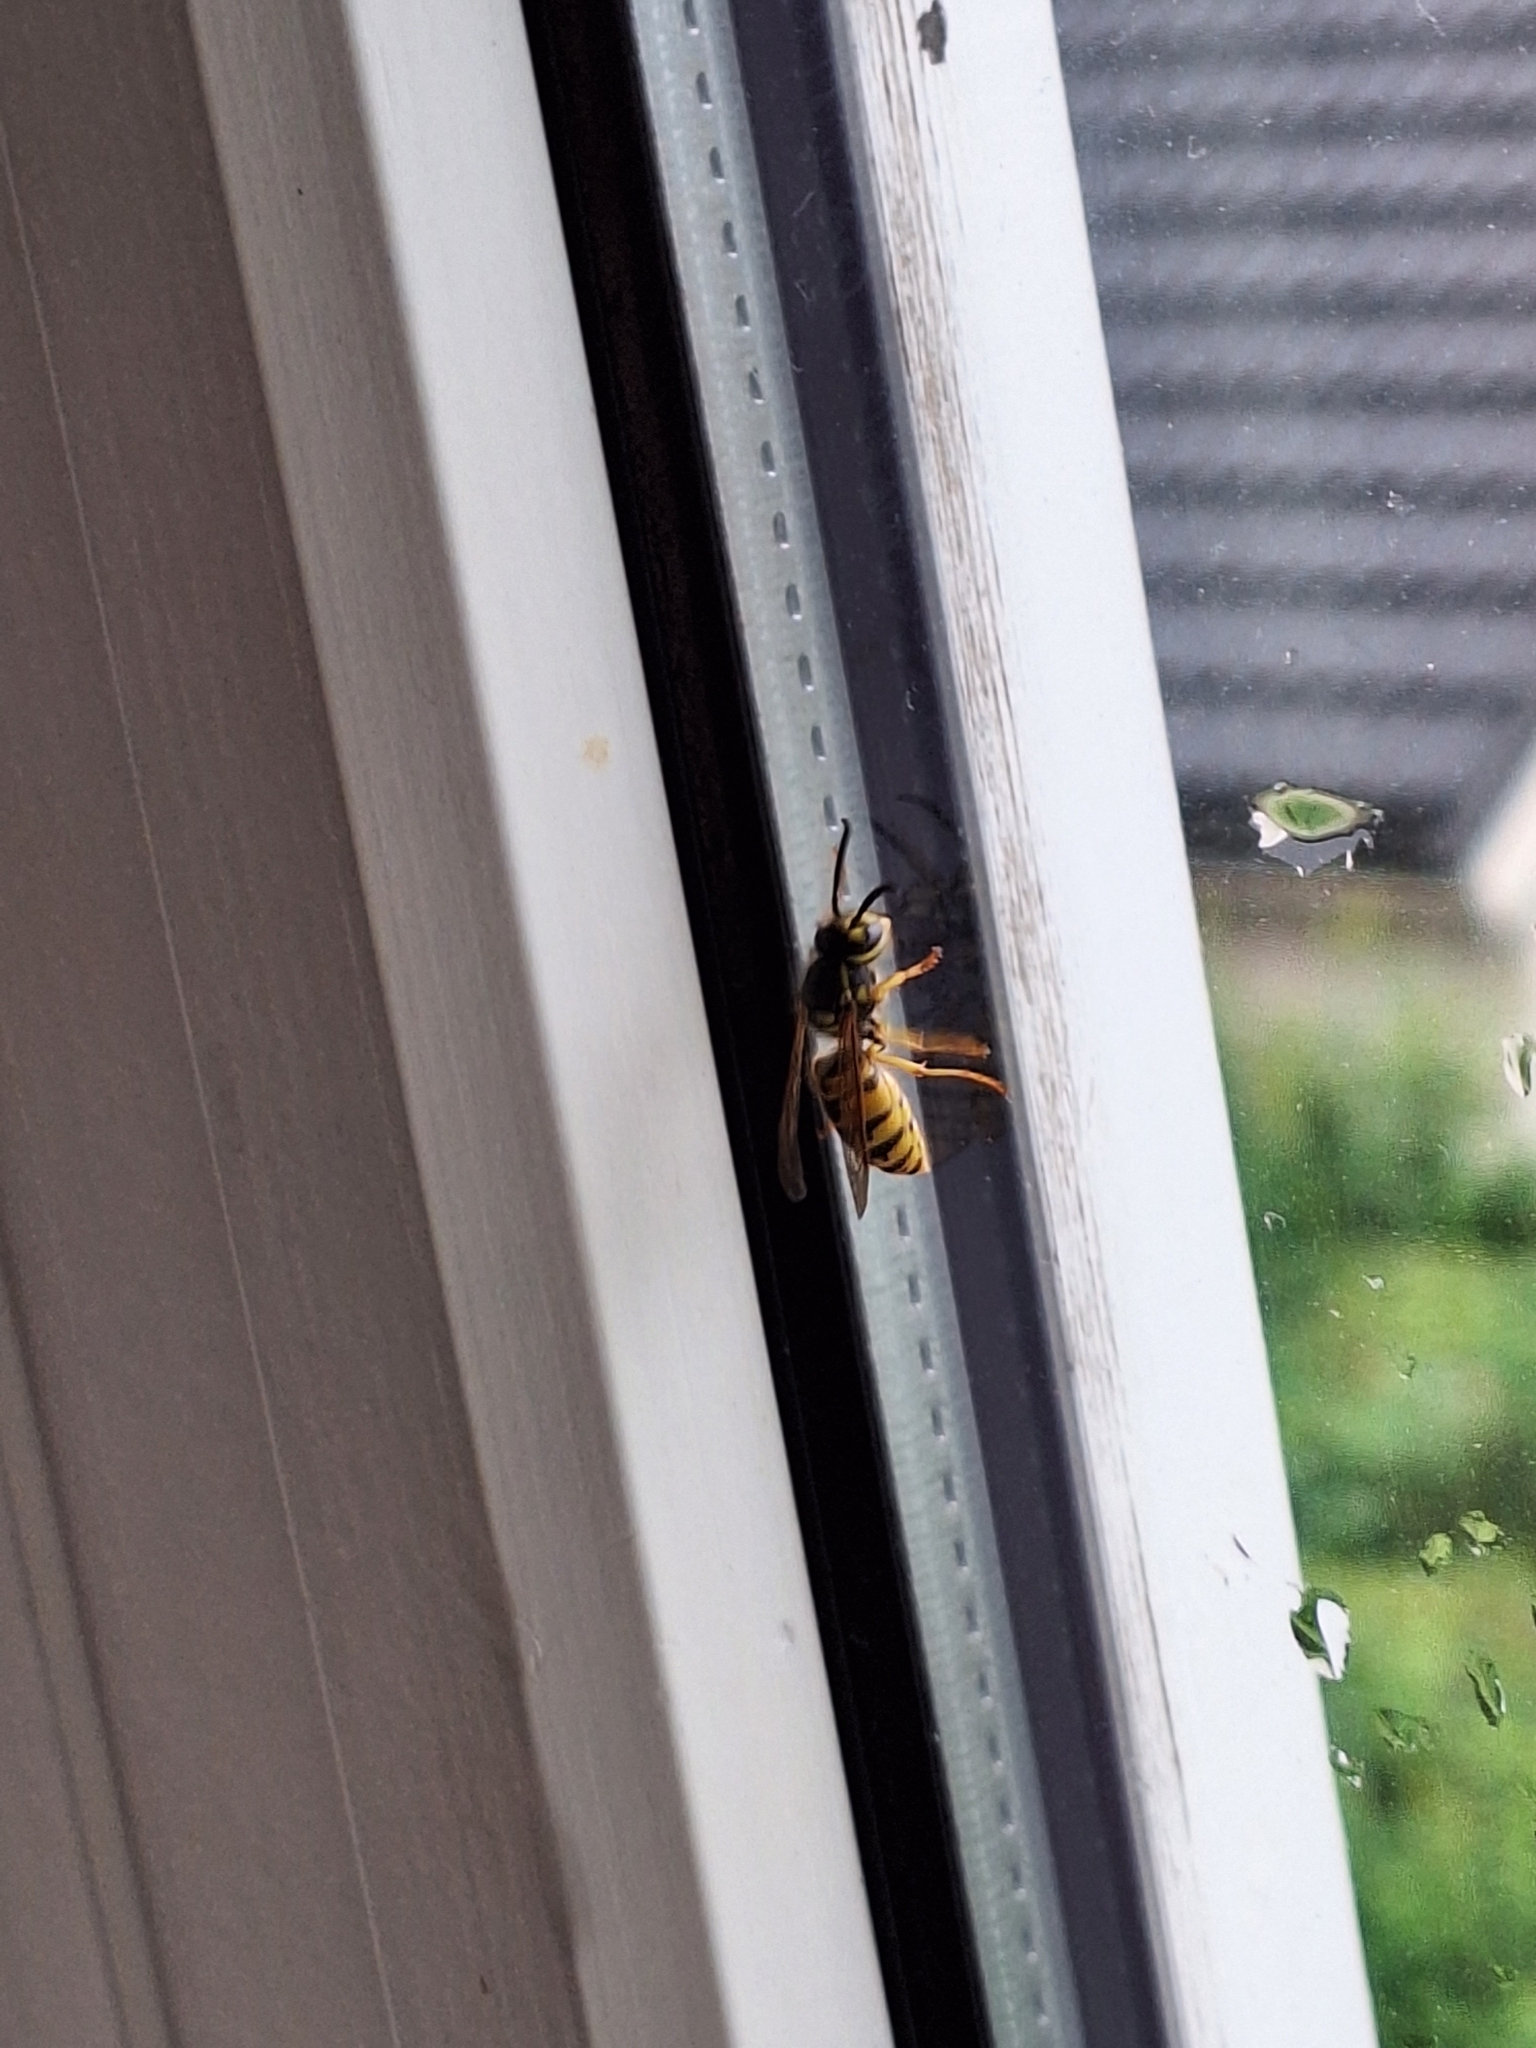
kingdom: Animalia
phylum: Arthropoda
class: Insecta
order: Hymenoptera
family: Vespidae
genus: Vespula
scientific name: Vespula germanica
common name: German wasp
